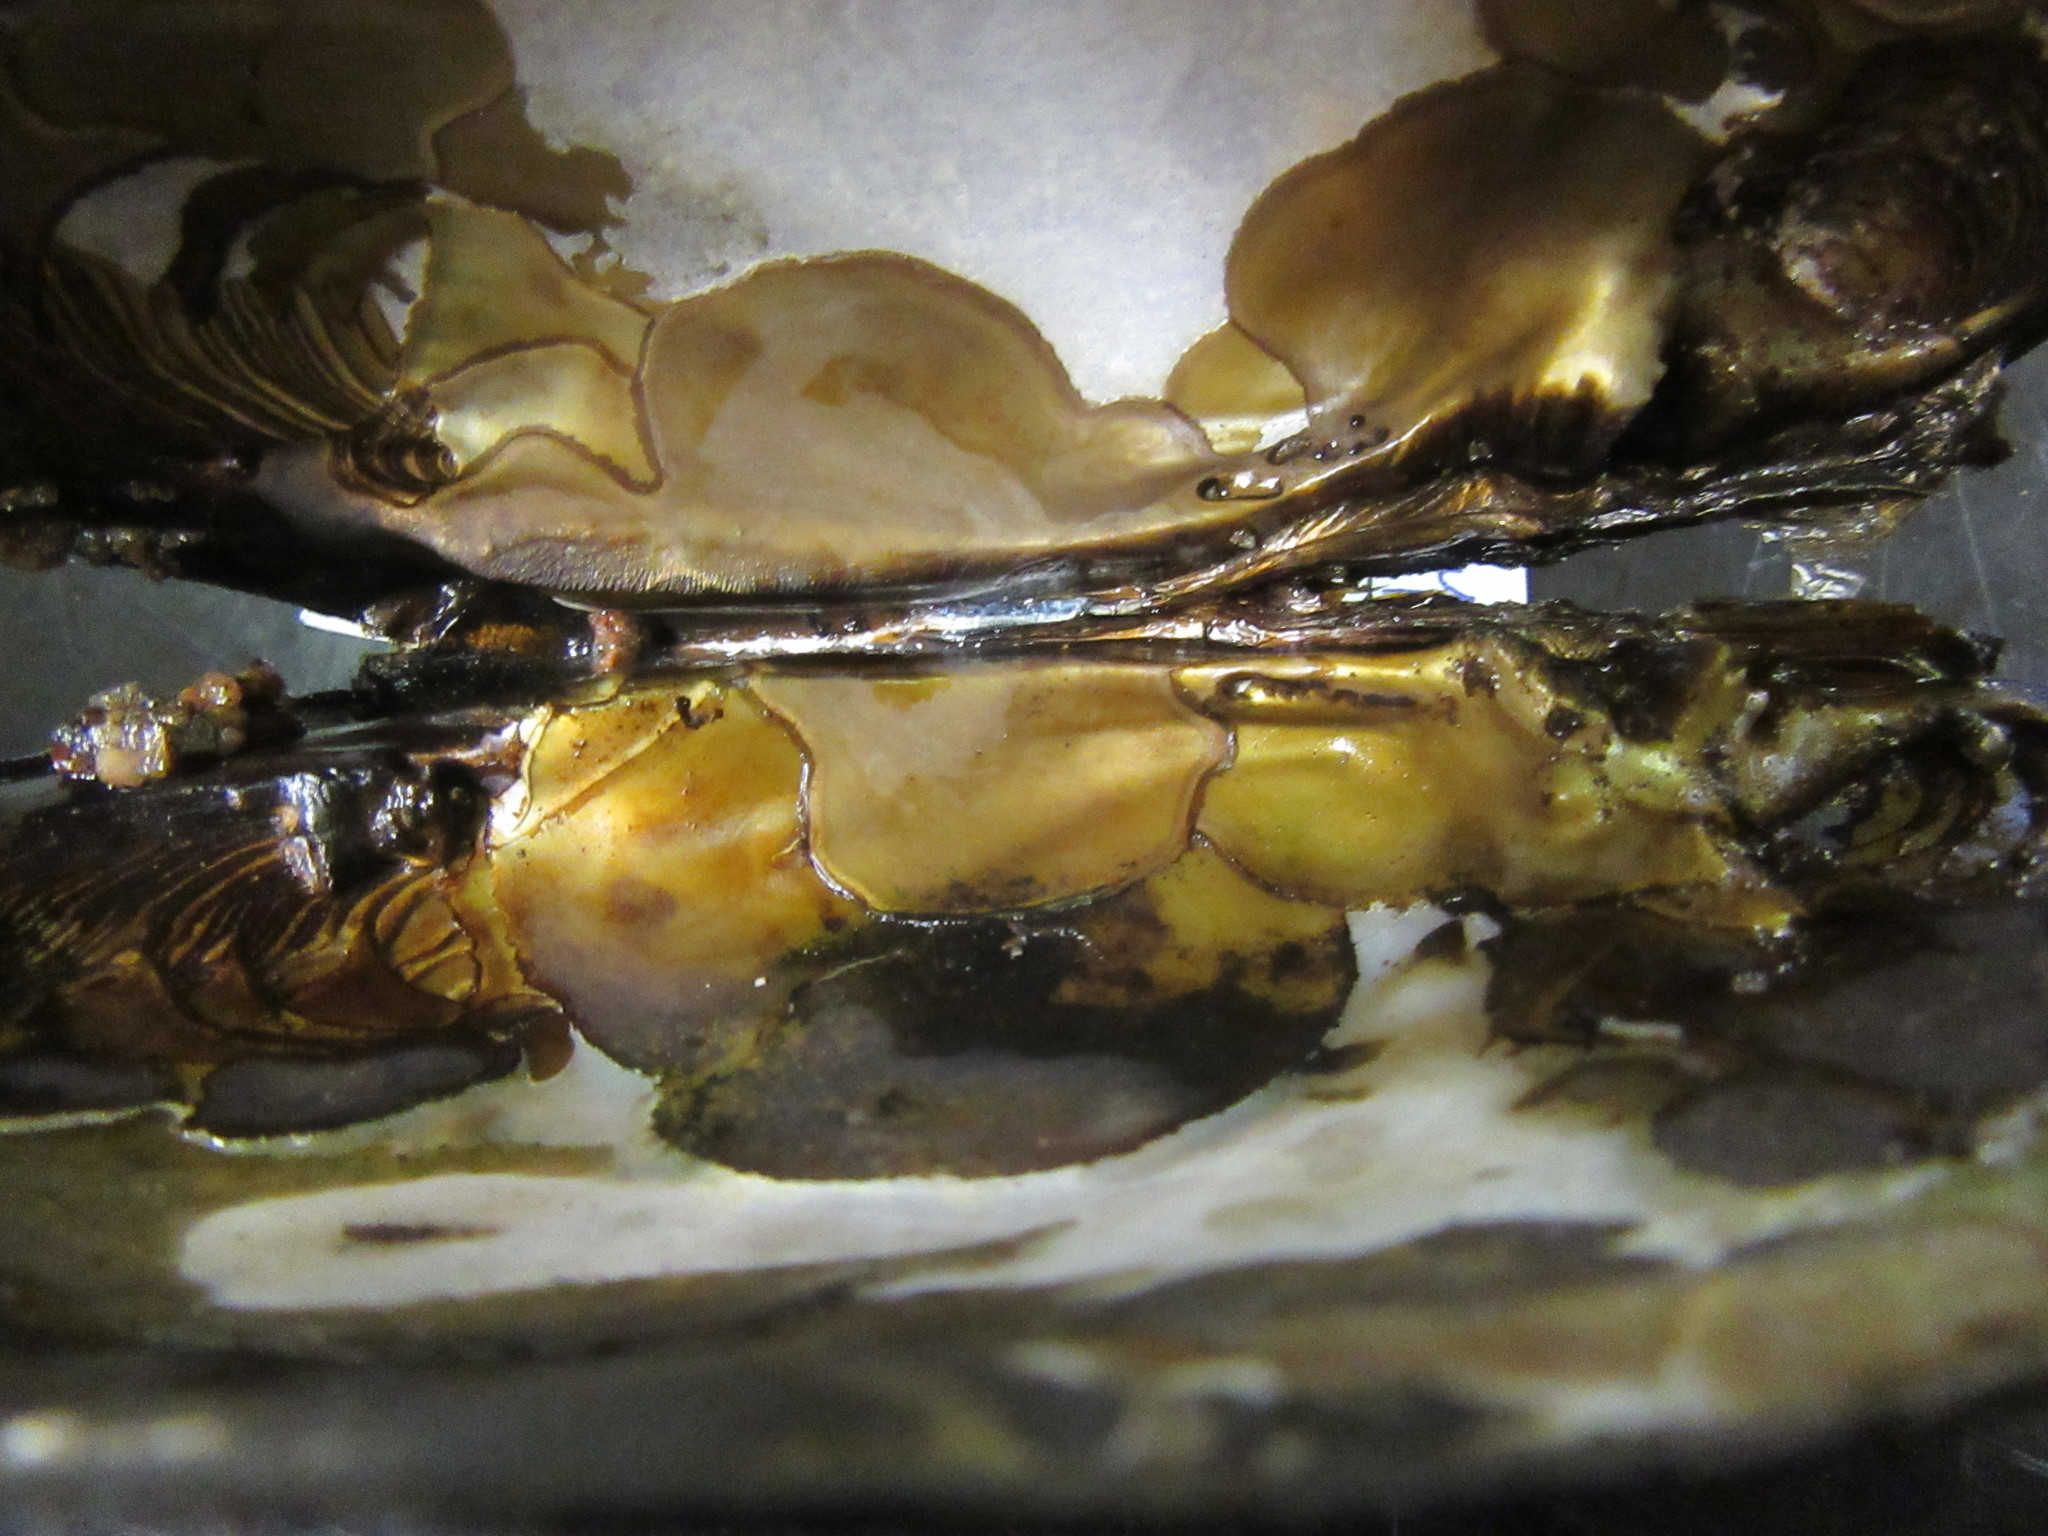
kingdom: Animalia
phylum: Mollusca
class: Bivalvia
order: Unionida
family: Unionidae
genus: Elliptio
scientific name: Elliptio complanata
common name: Eastern elliptio
